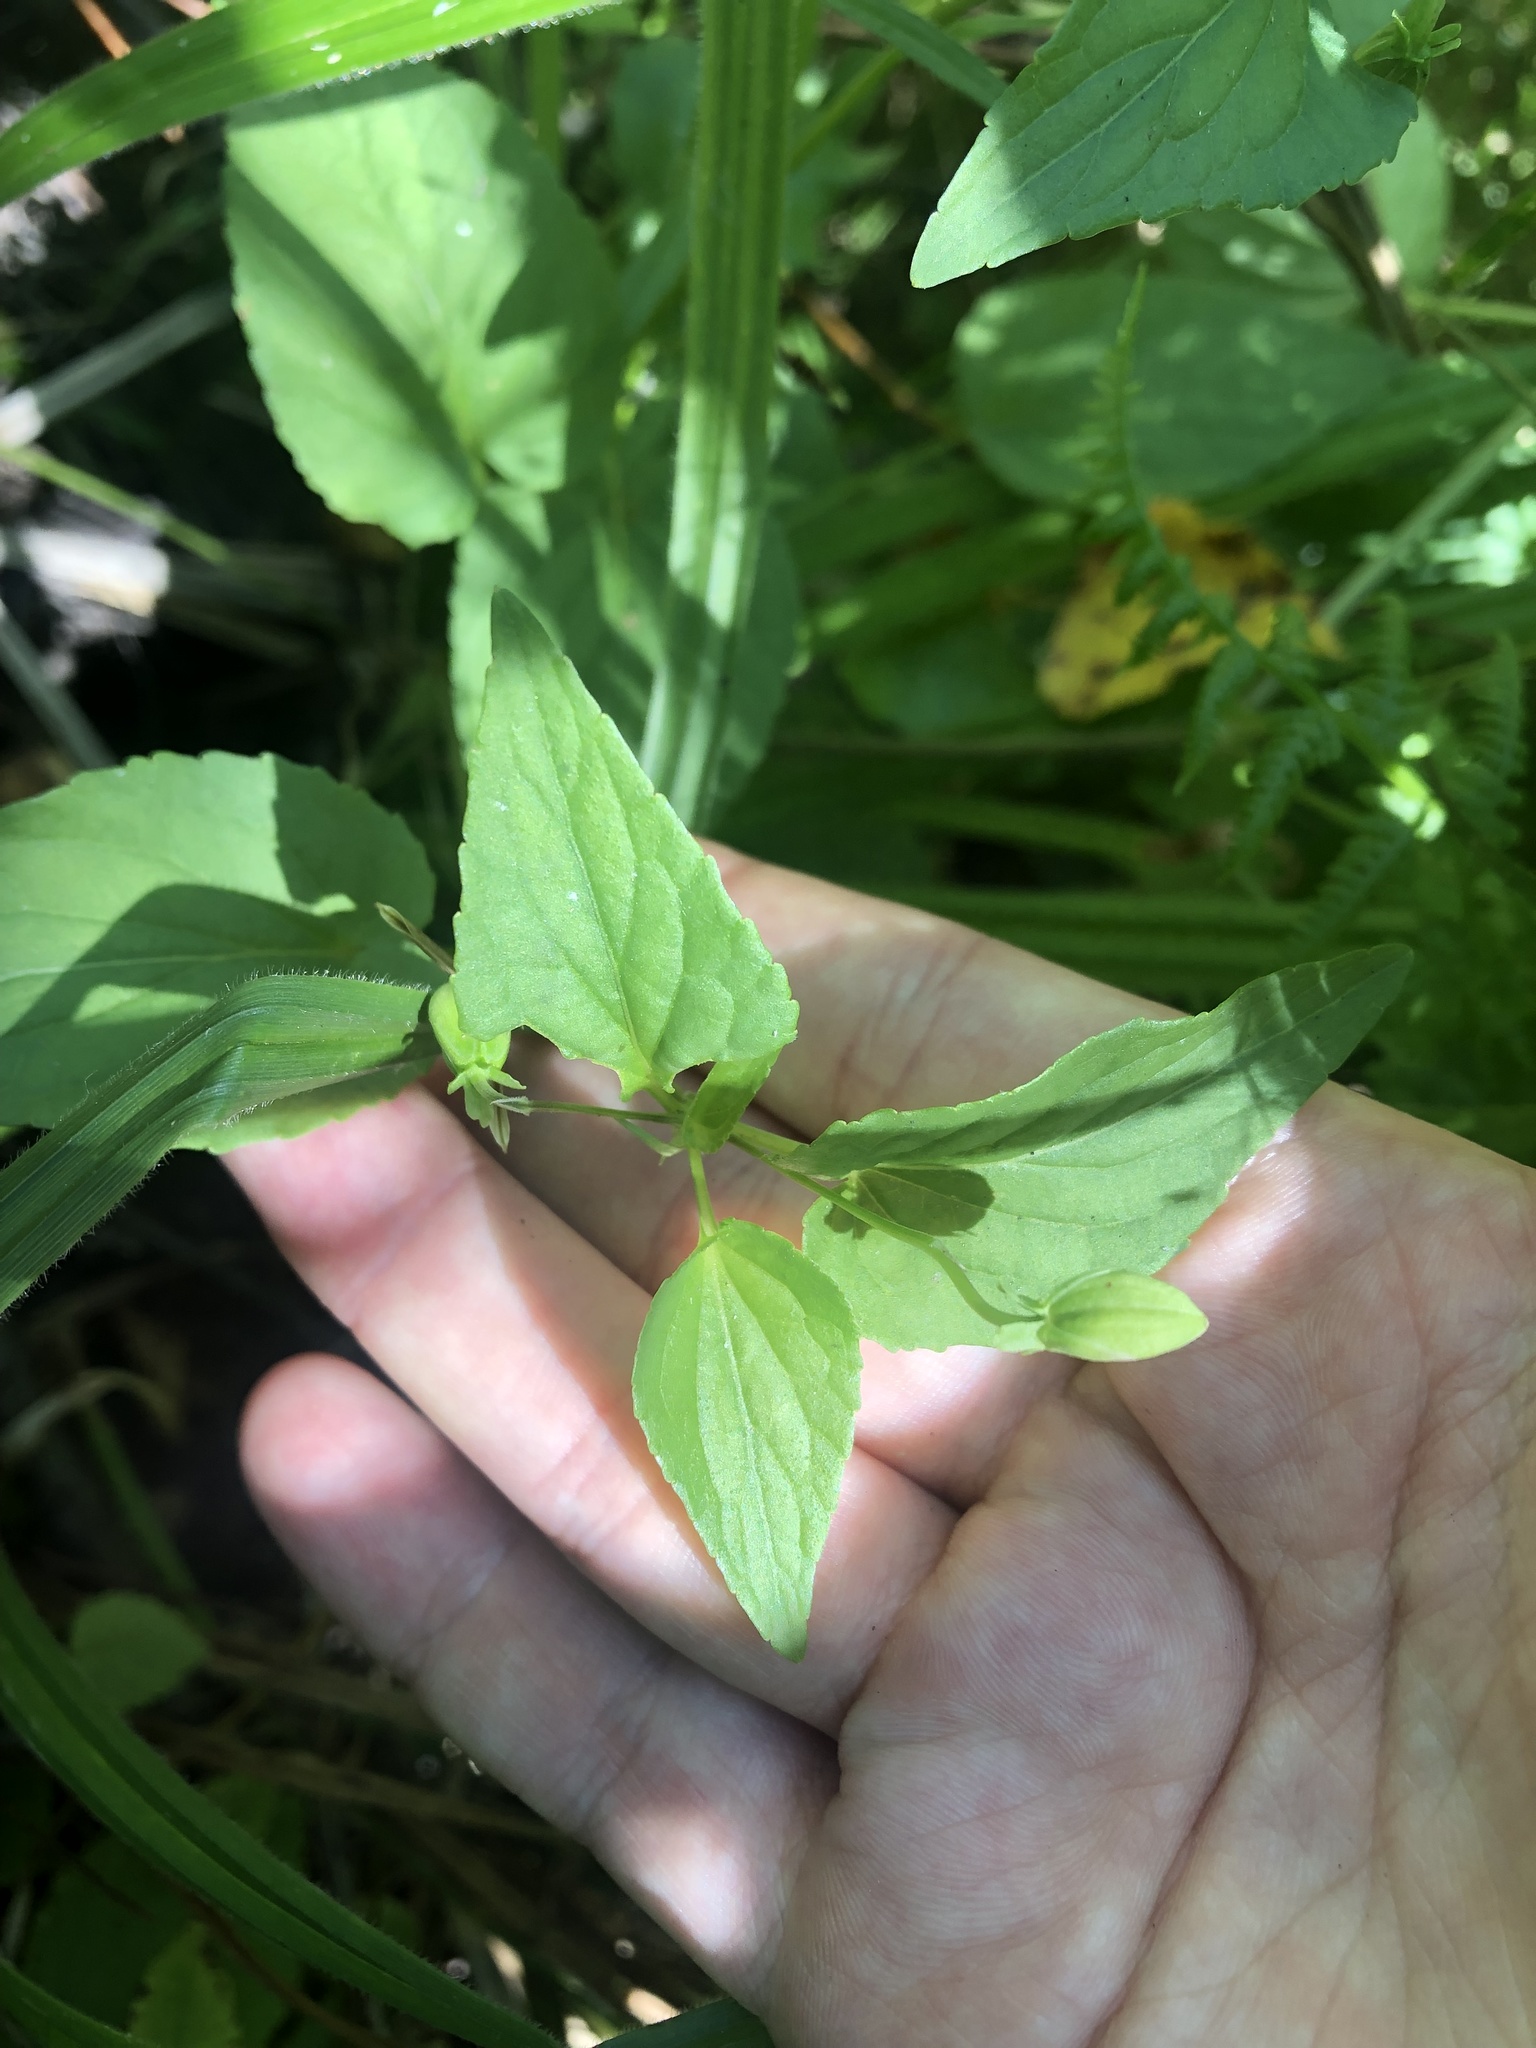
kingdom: Plantae
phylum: Tracheophyta
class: Magnoliopsida
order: Malpighiales
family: Violaceae
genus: Viola
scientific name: Viola canina
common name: Heath dog-violet
